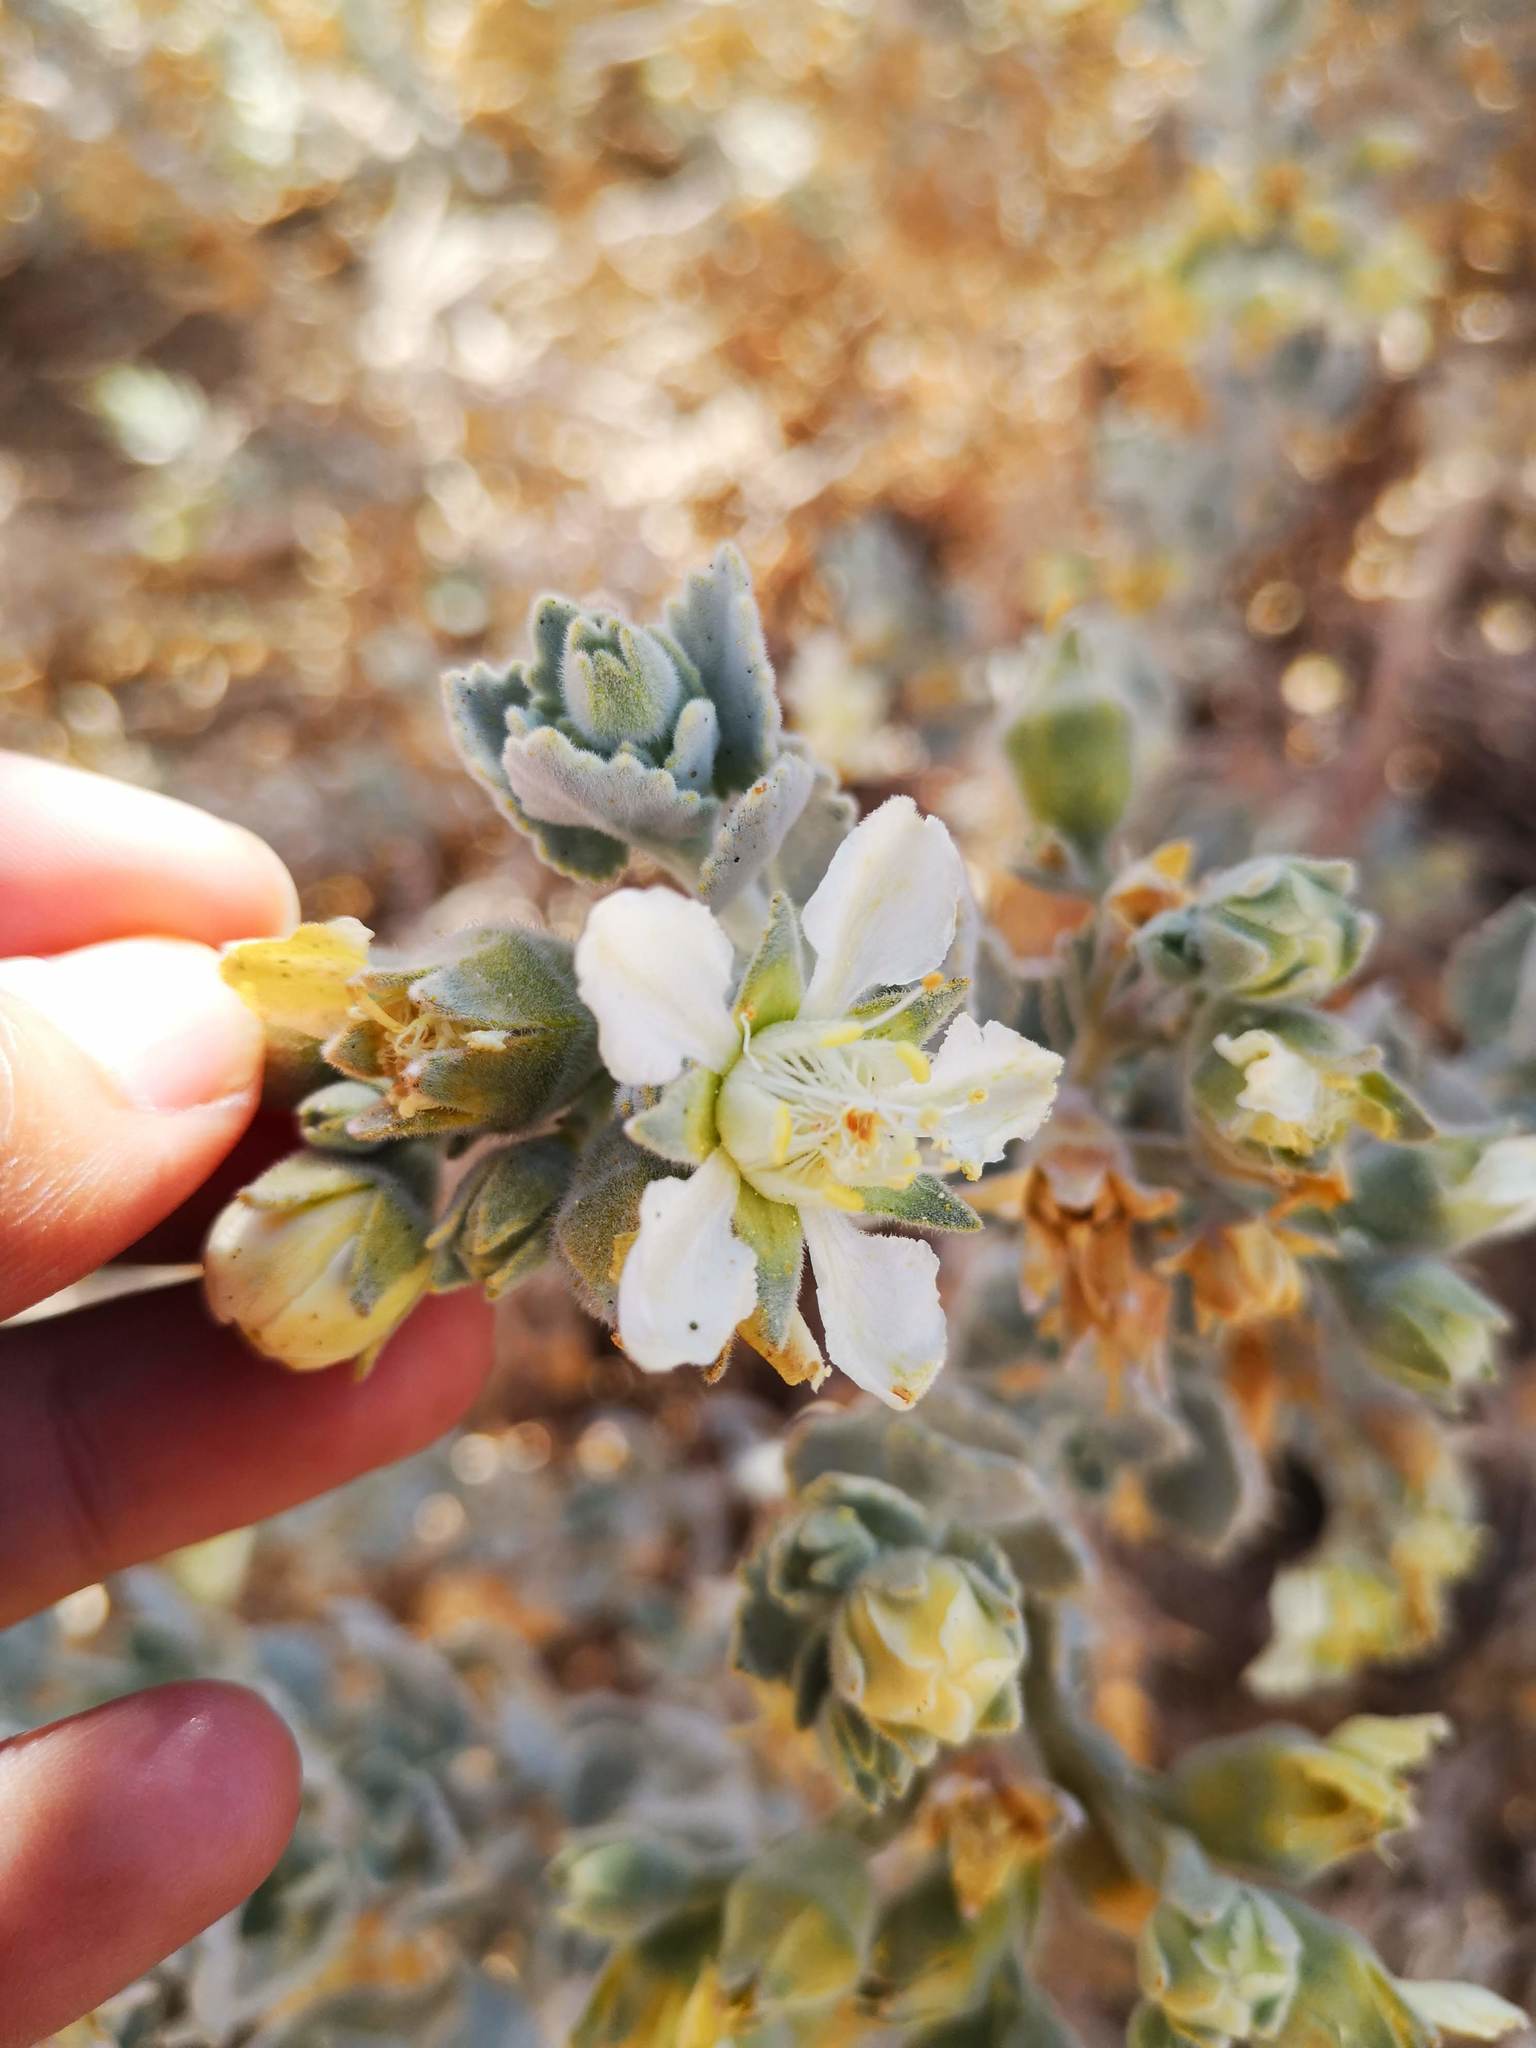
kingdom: Plantae
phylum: Tracheophyta
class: Magnoliopsida
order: Cornales
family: Loasaceae
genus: Huidobria
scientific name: Huidobria fruticosa
